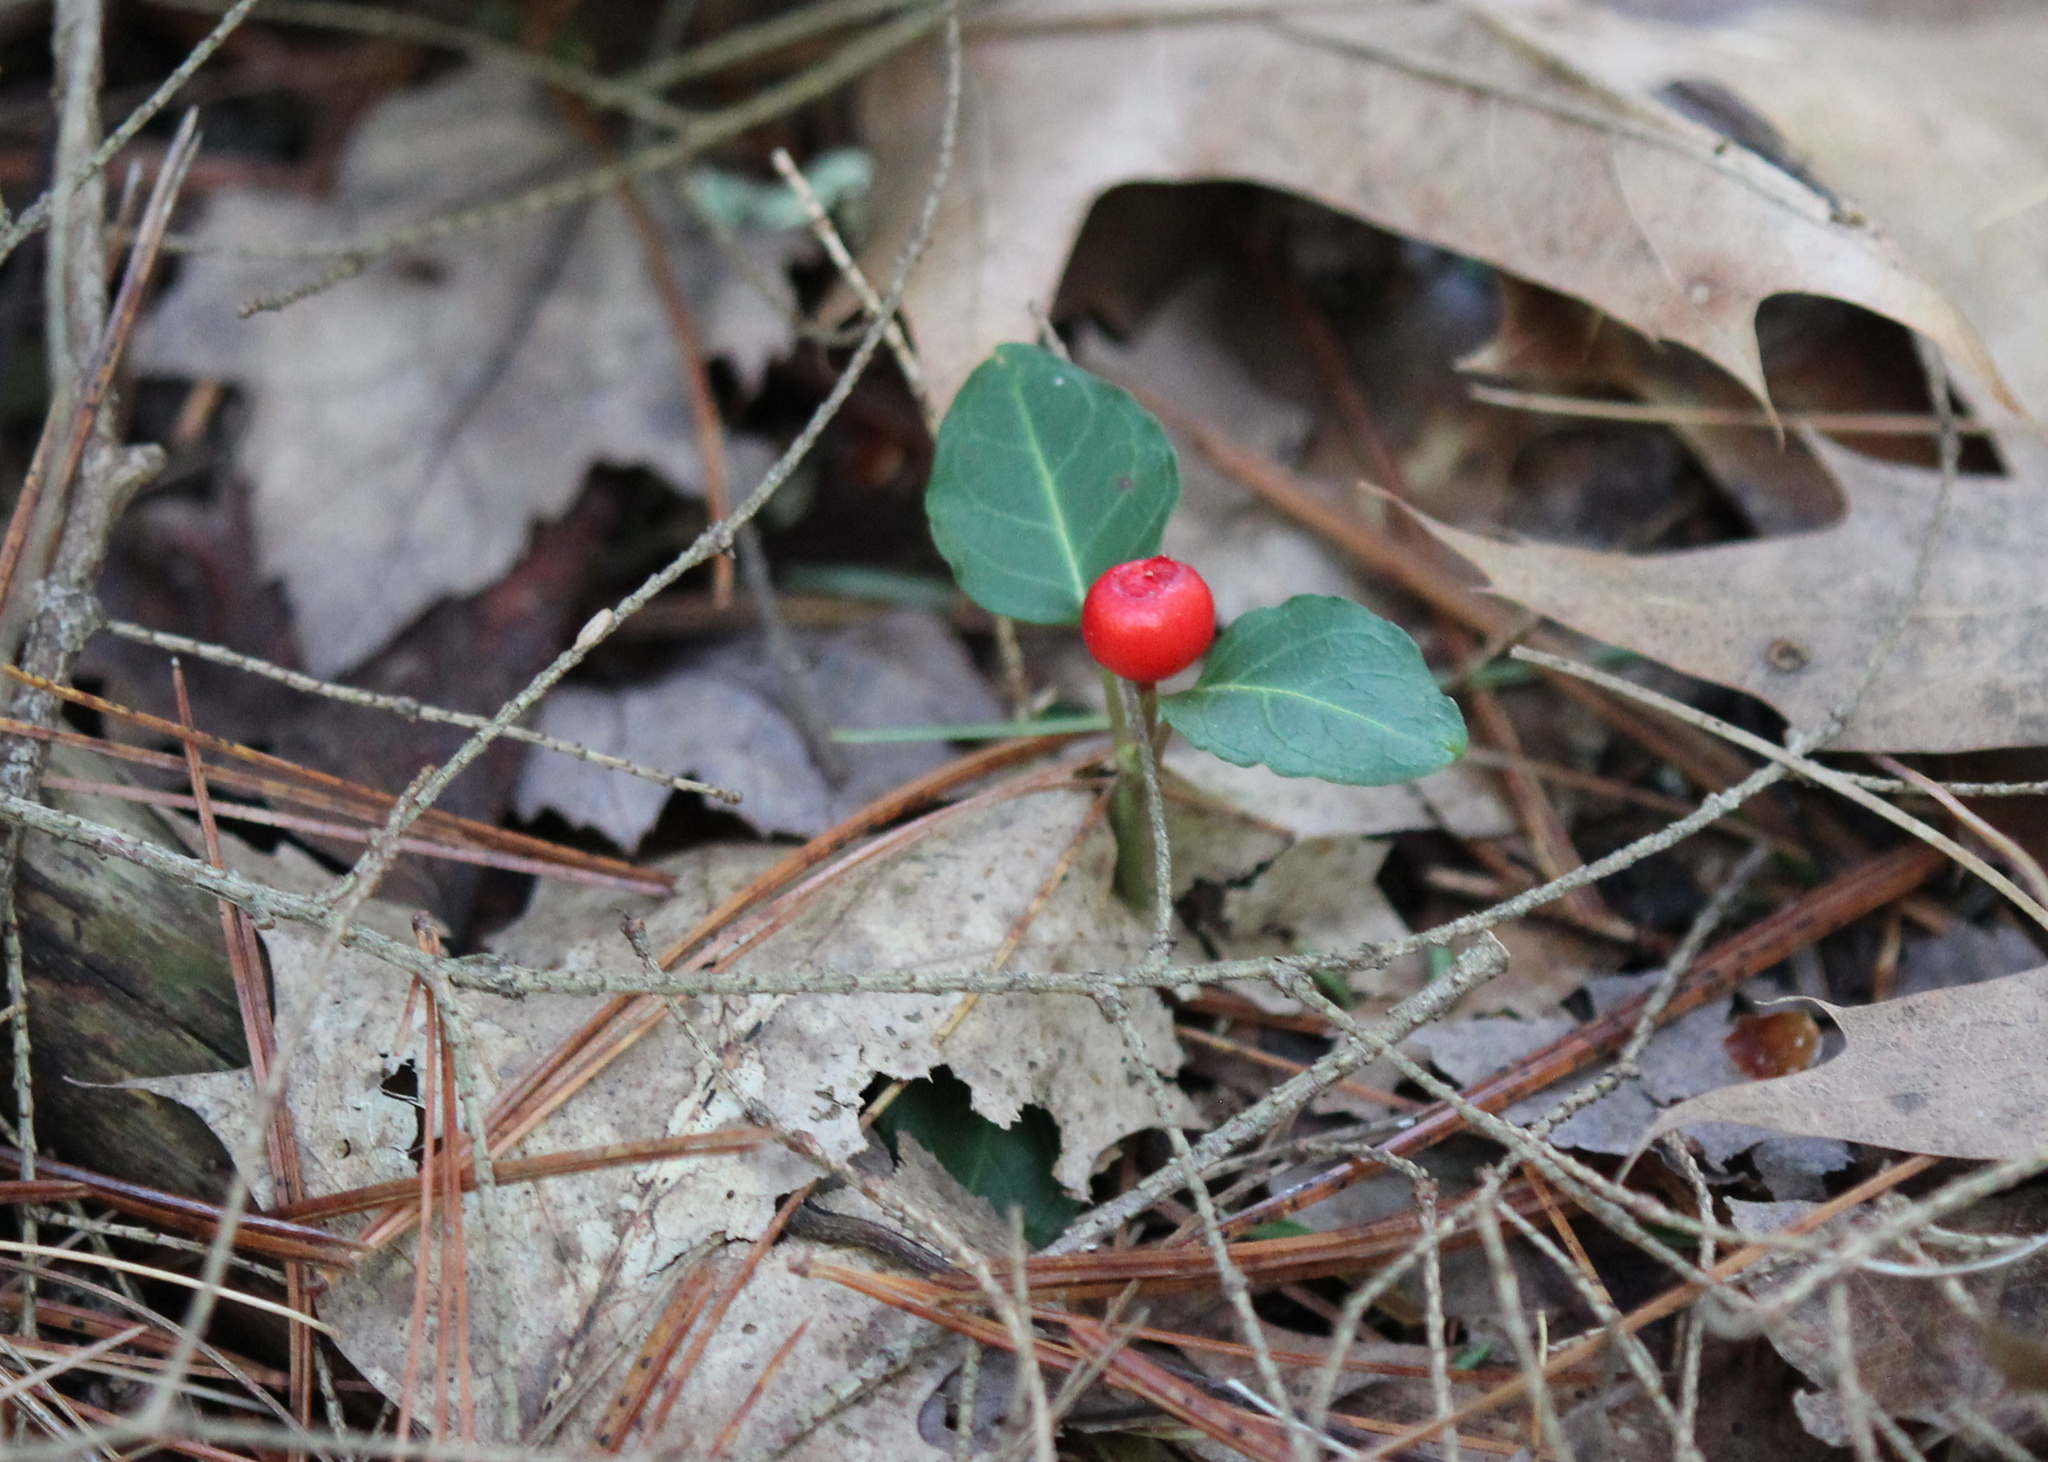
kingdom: Plantae
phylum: Tracheophyta
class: Magnoliopsida
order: Gentianales
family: Rubiaceae
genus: Mitchella
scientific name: Mitchella repens
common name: Partridge-berry
